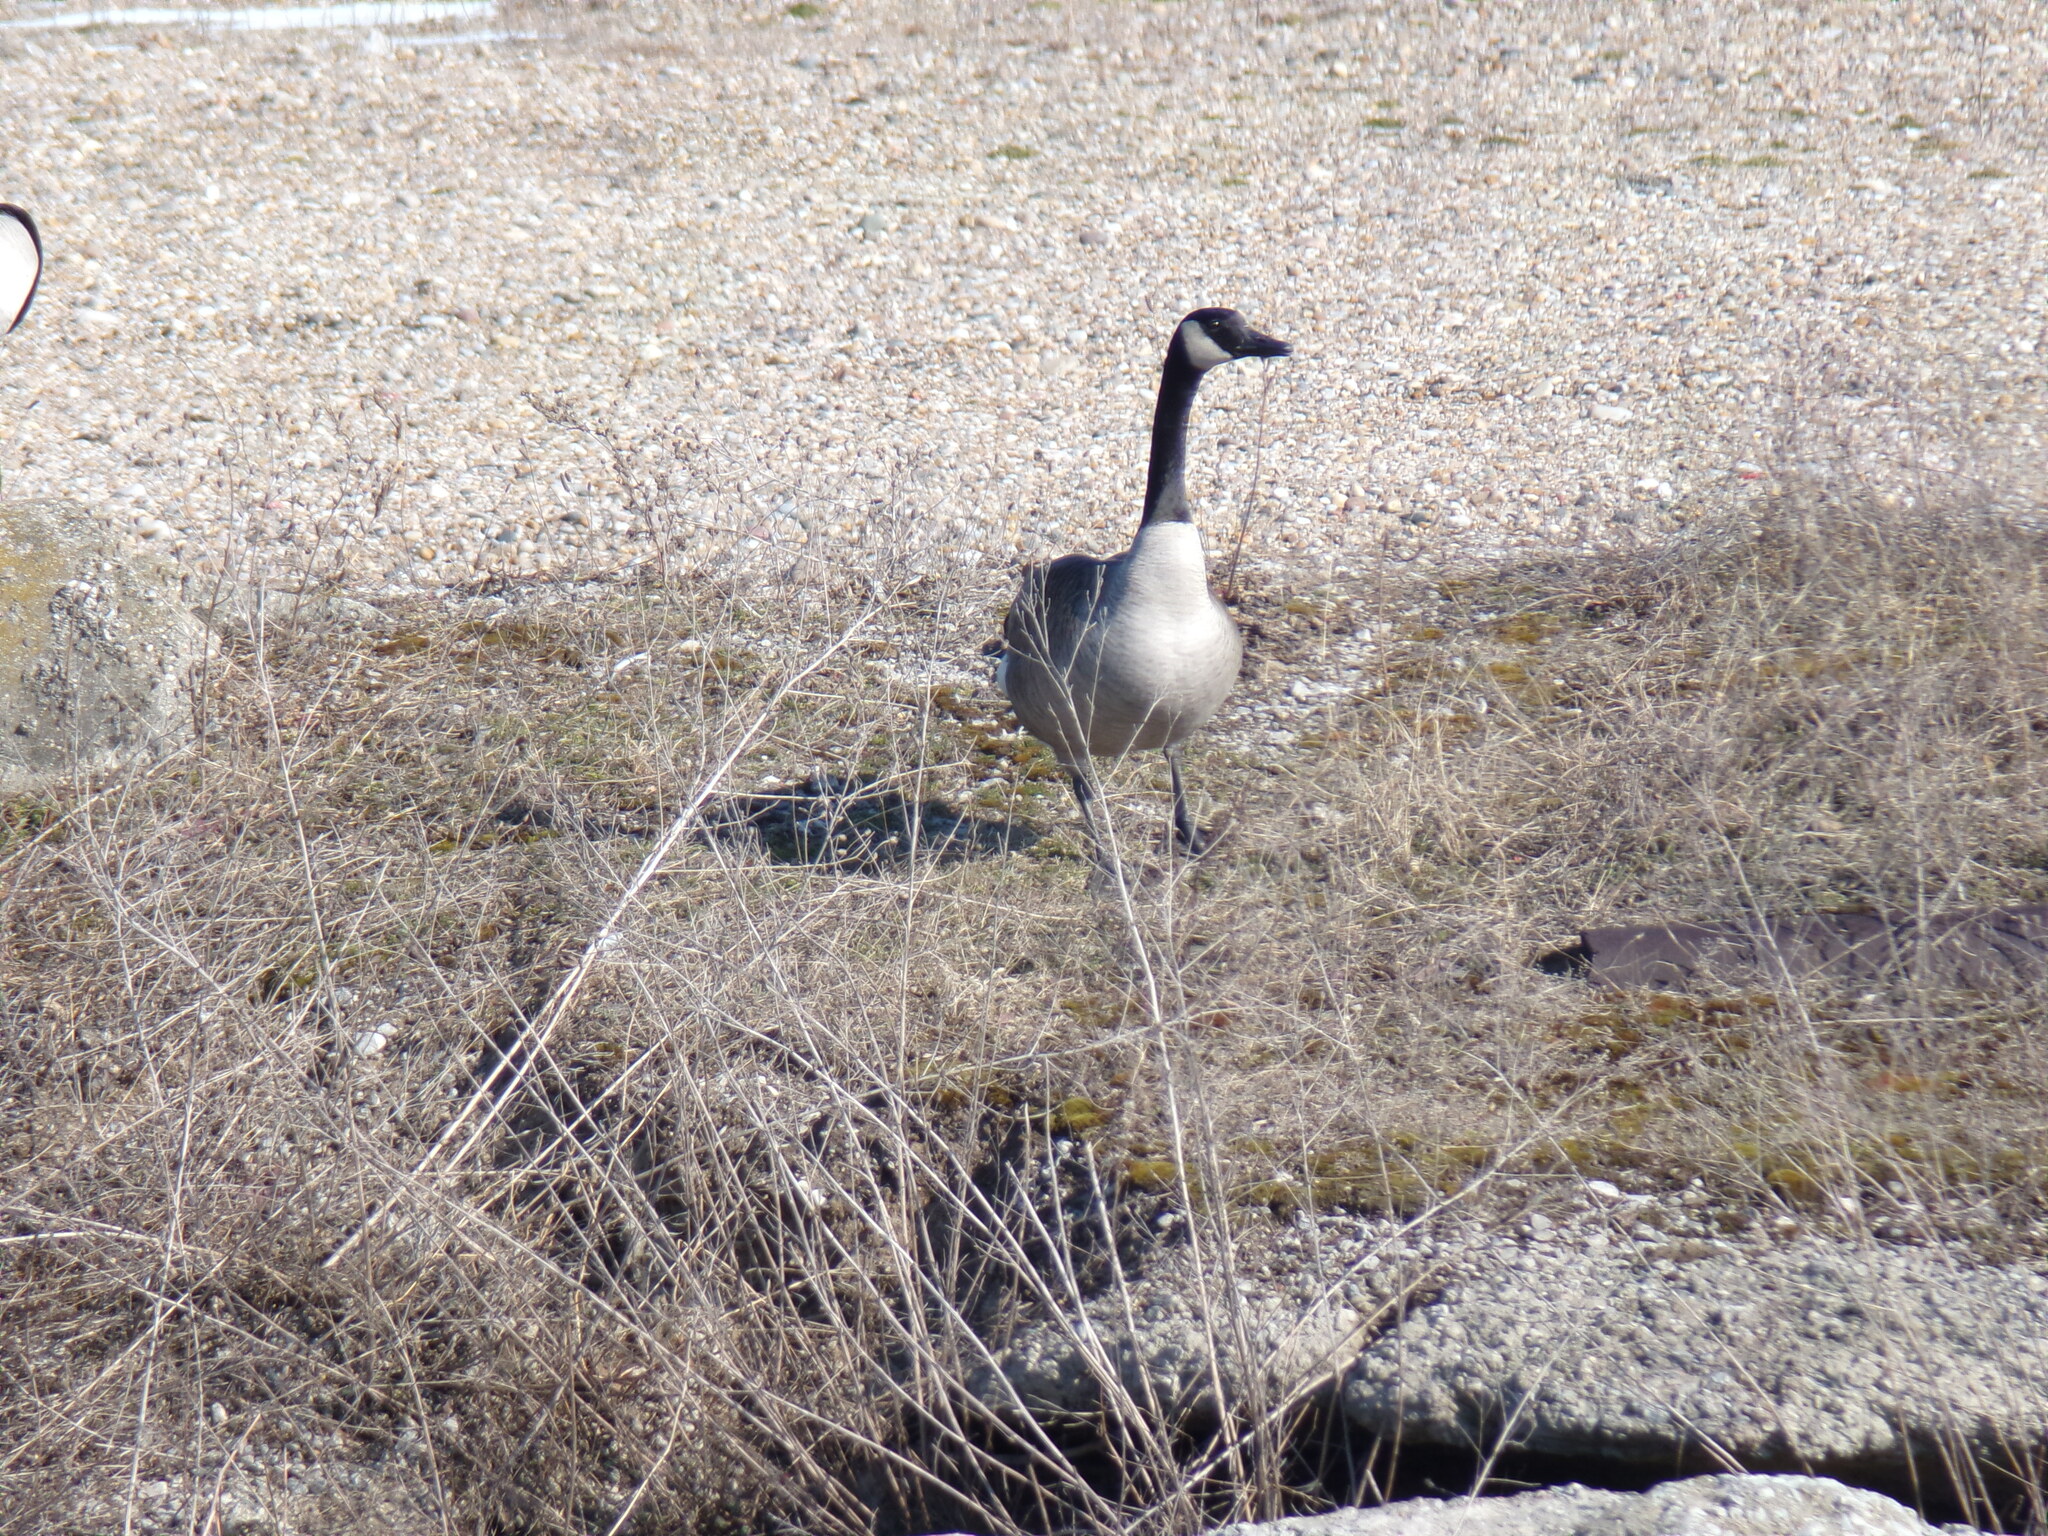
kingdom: Animalia
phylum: Chordata
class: Aves
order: Anseriformes
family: Anatidae
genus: Branta
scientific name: Branta canadensis
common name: Canada goose
